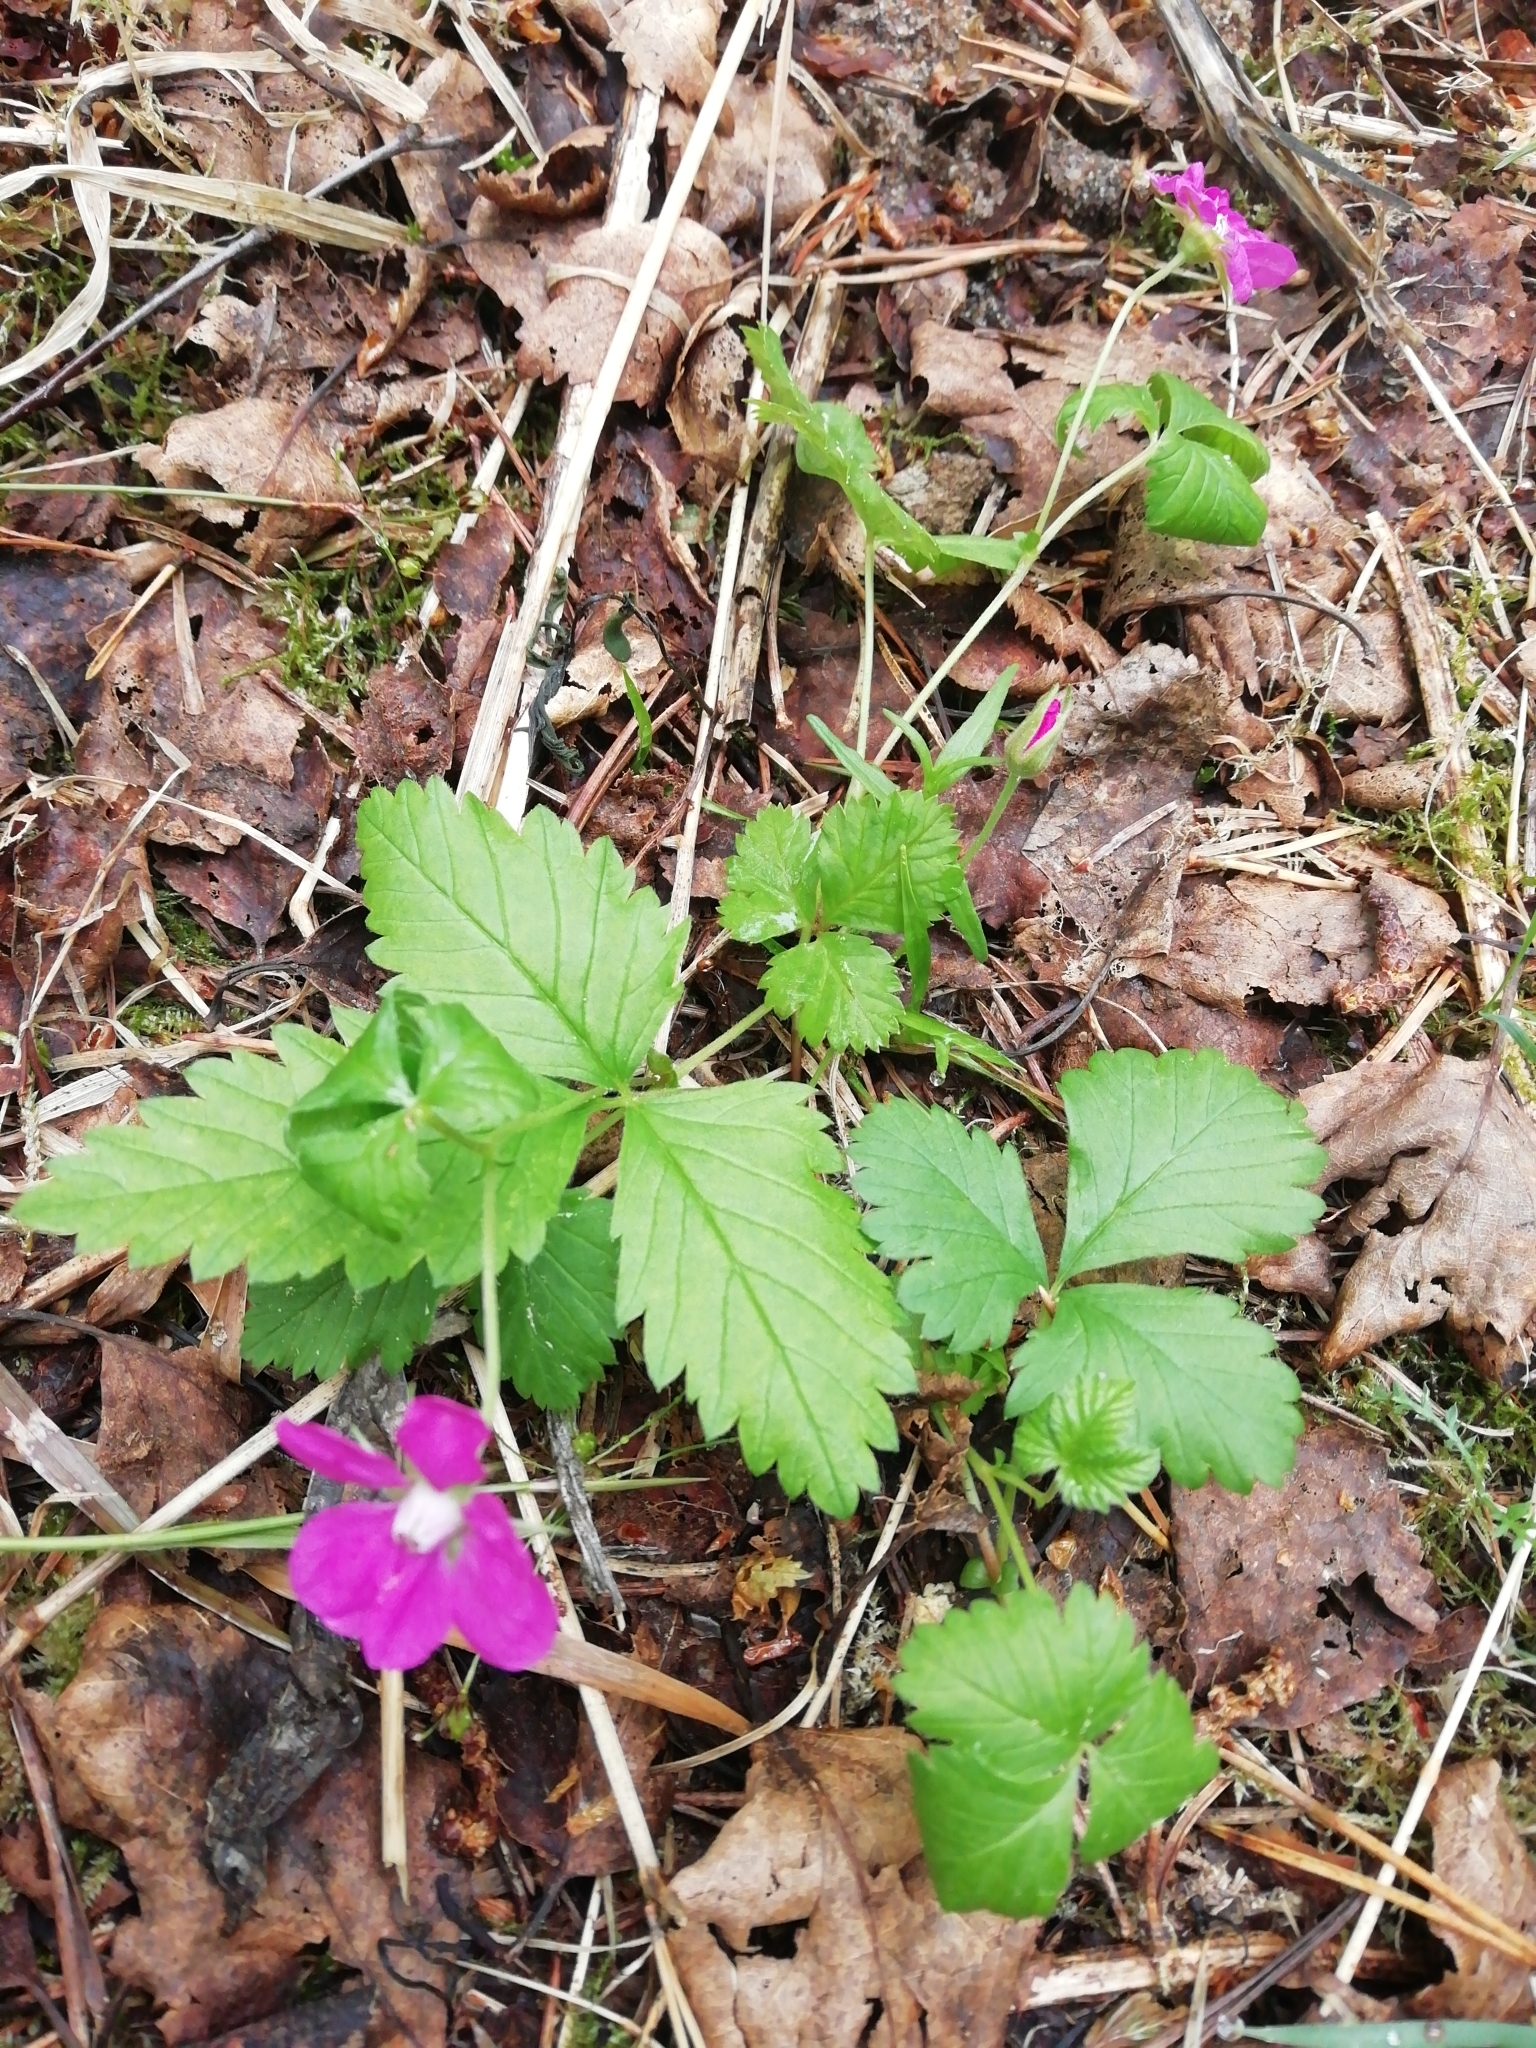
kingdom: Plantae
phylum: Tracheophyta
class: Magnoliopsida
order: Rosales
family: Rosaceae
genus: Rubus
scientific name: Rubus arcticus
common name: Arctic bramble
